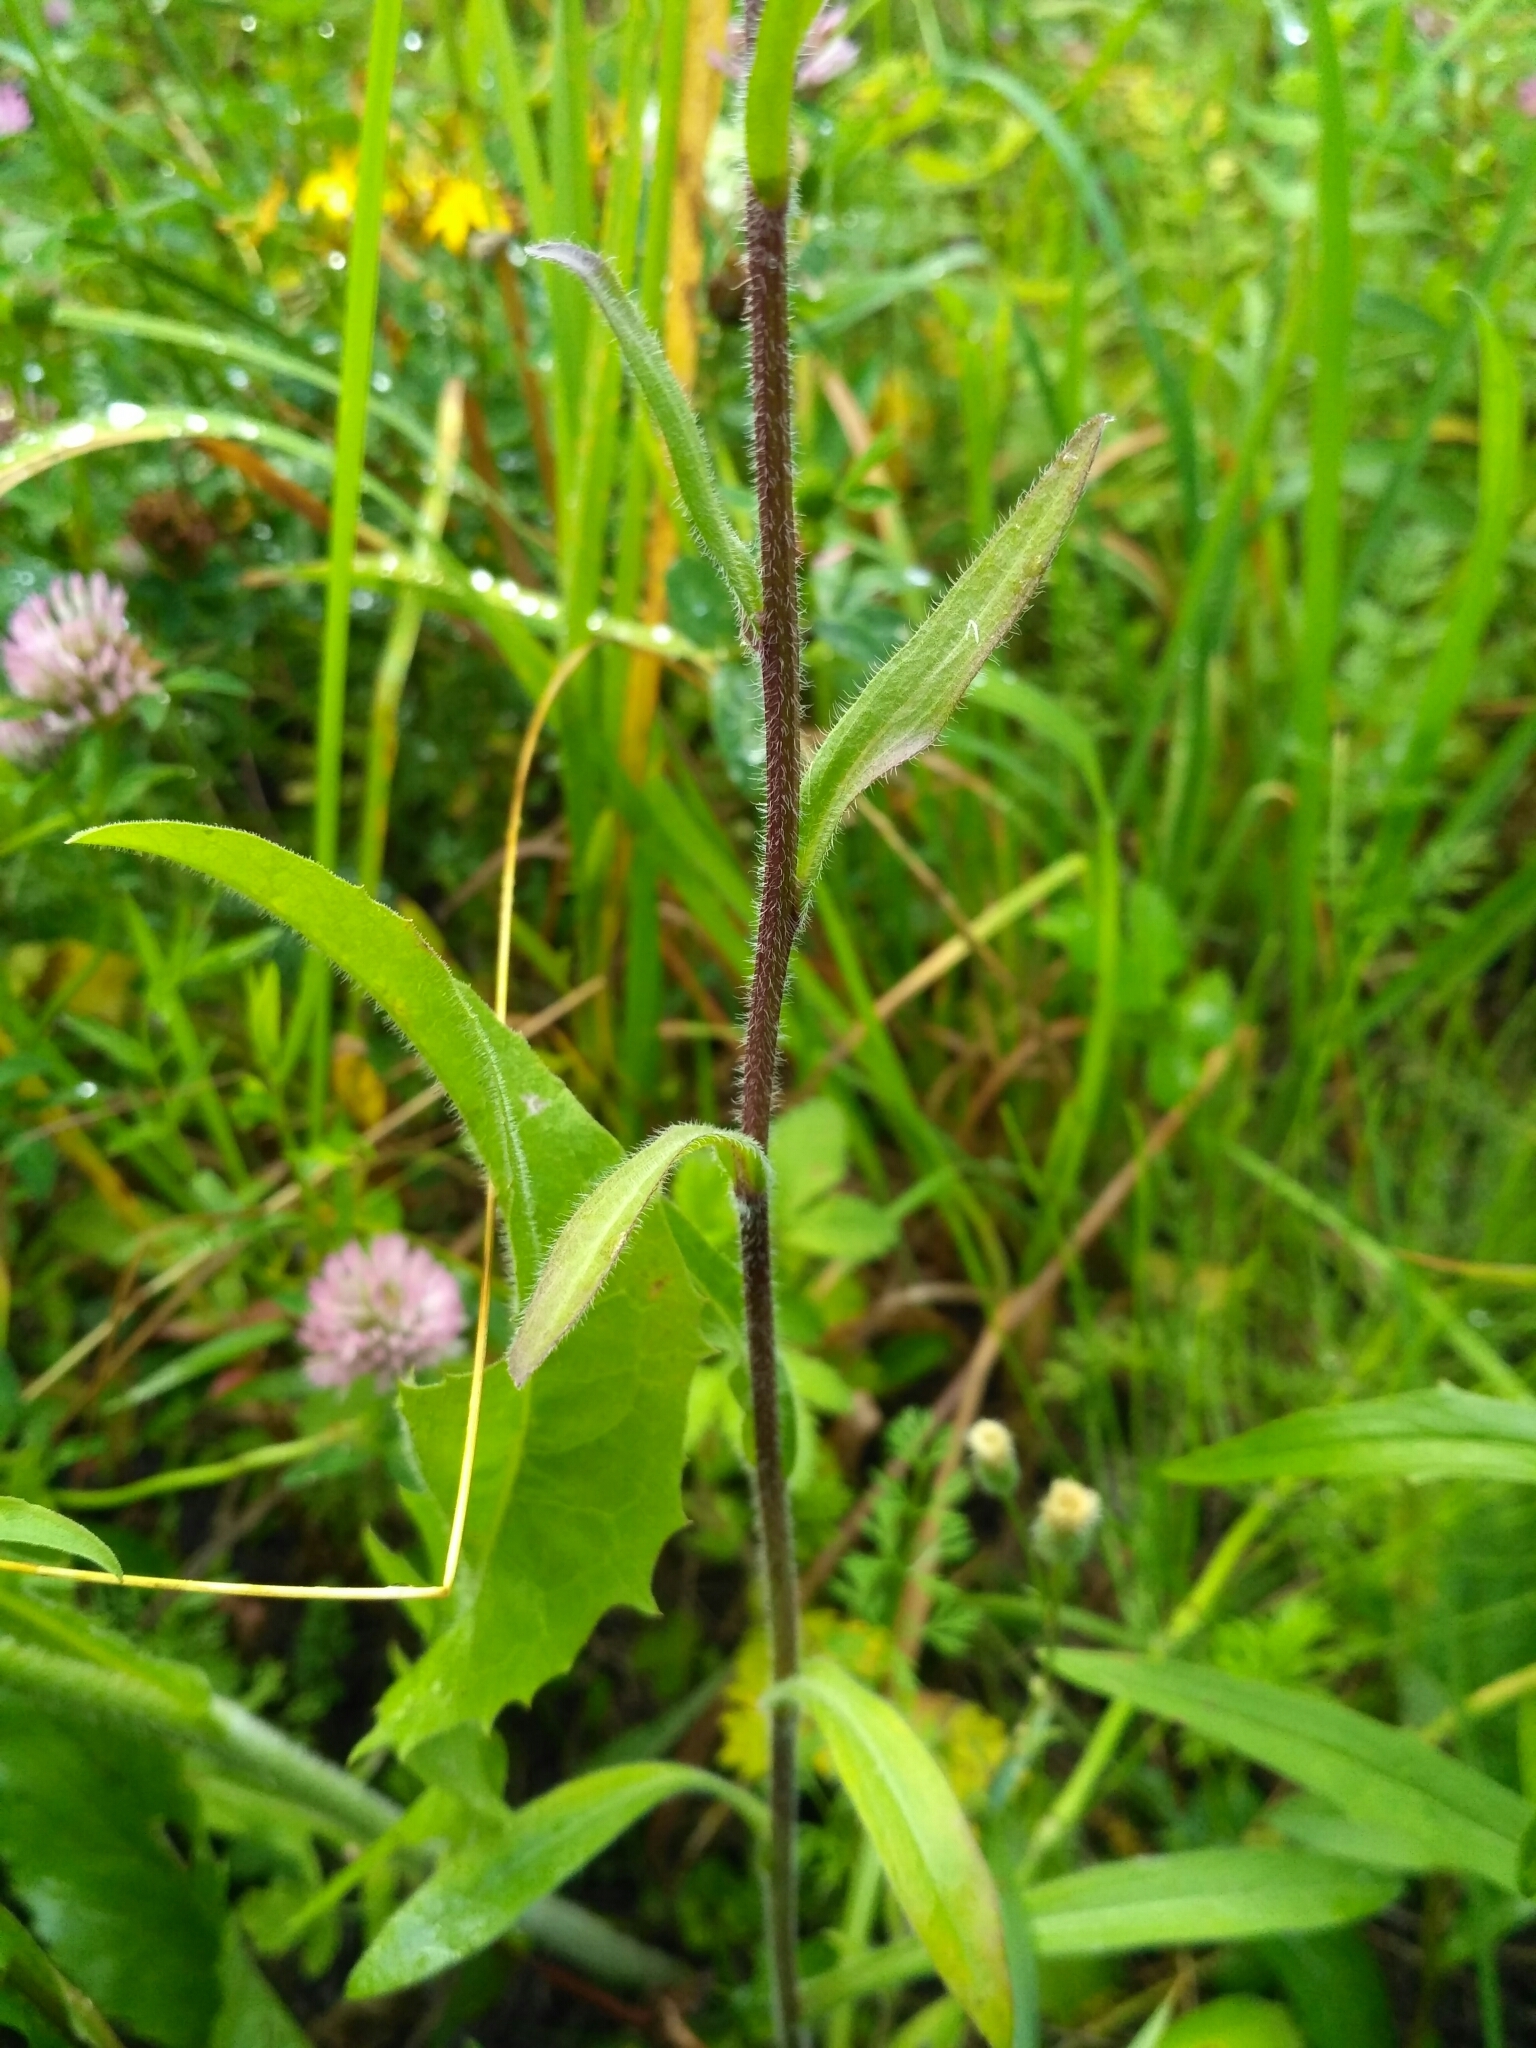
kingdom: Plantae
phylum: Tracheophyta
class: Magnoliopsida
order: Asterales
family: Asteraceae
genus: Erigeron
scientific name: Erigeron acris
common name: Blue fleabane
